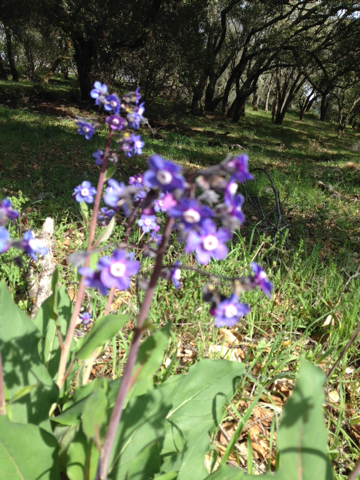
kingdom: Plantae
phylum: Tracheophyta
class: Magnoliopsida
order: Boraginales
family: Boraginaceae
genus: Adelinia
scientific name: Adelinia grande
